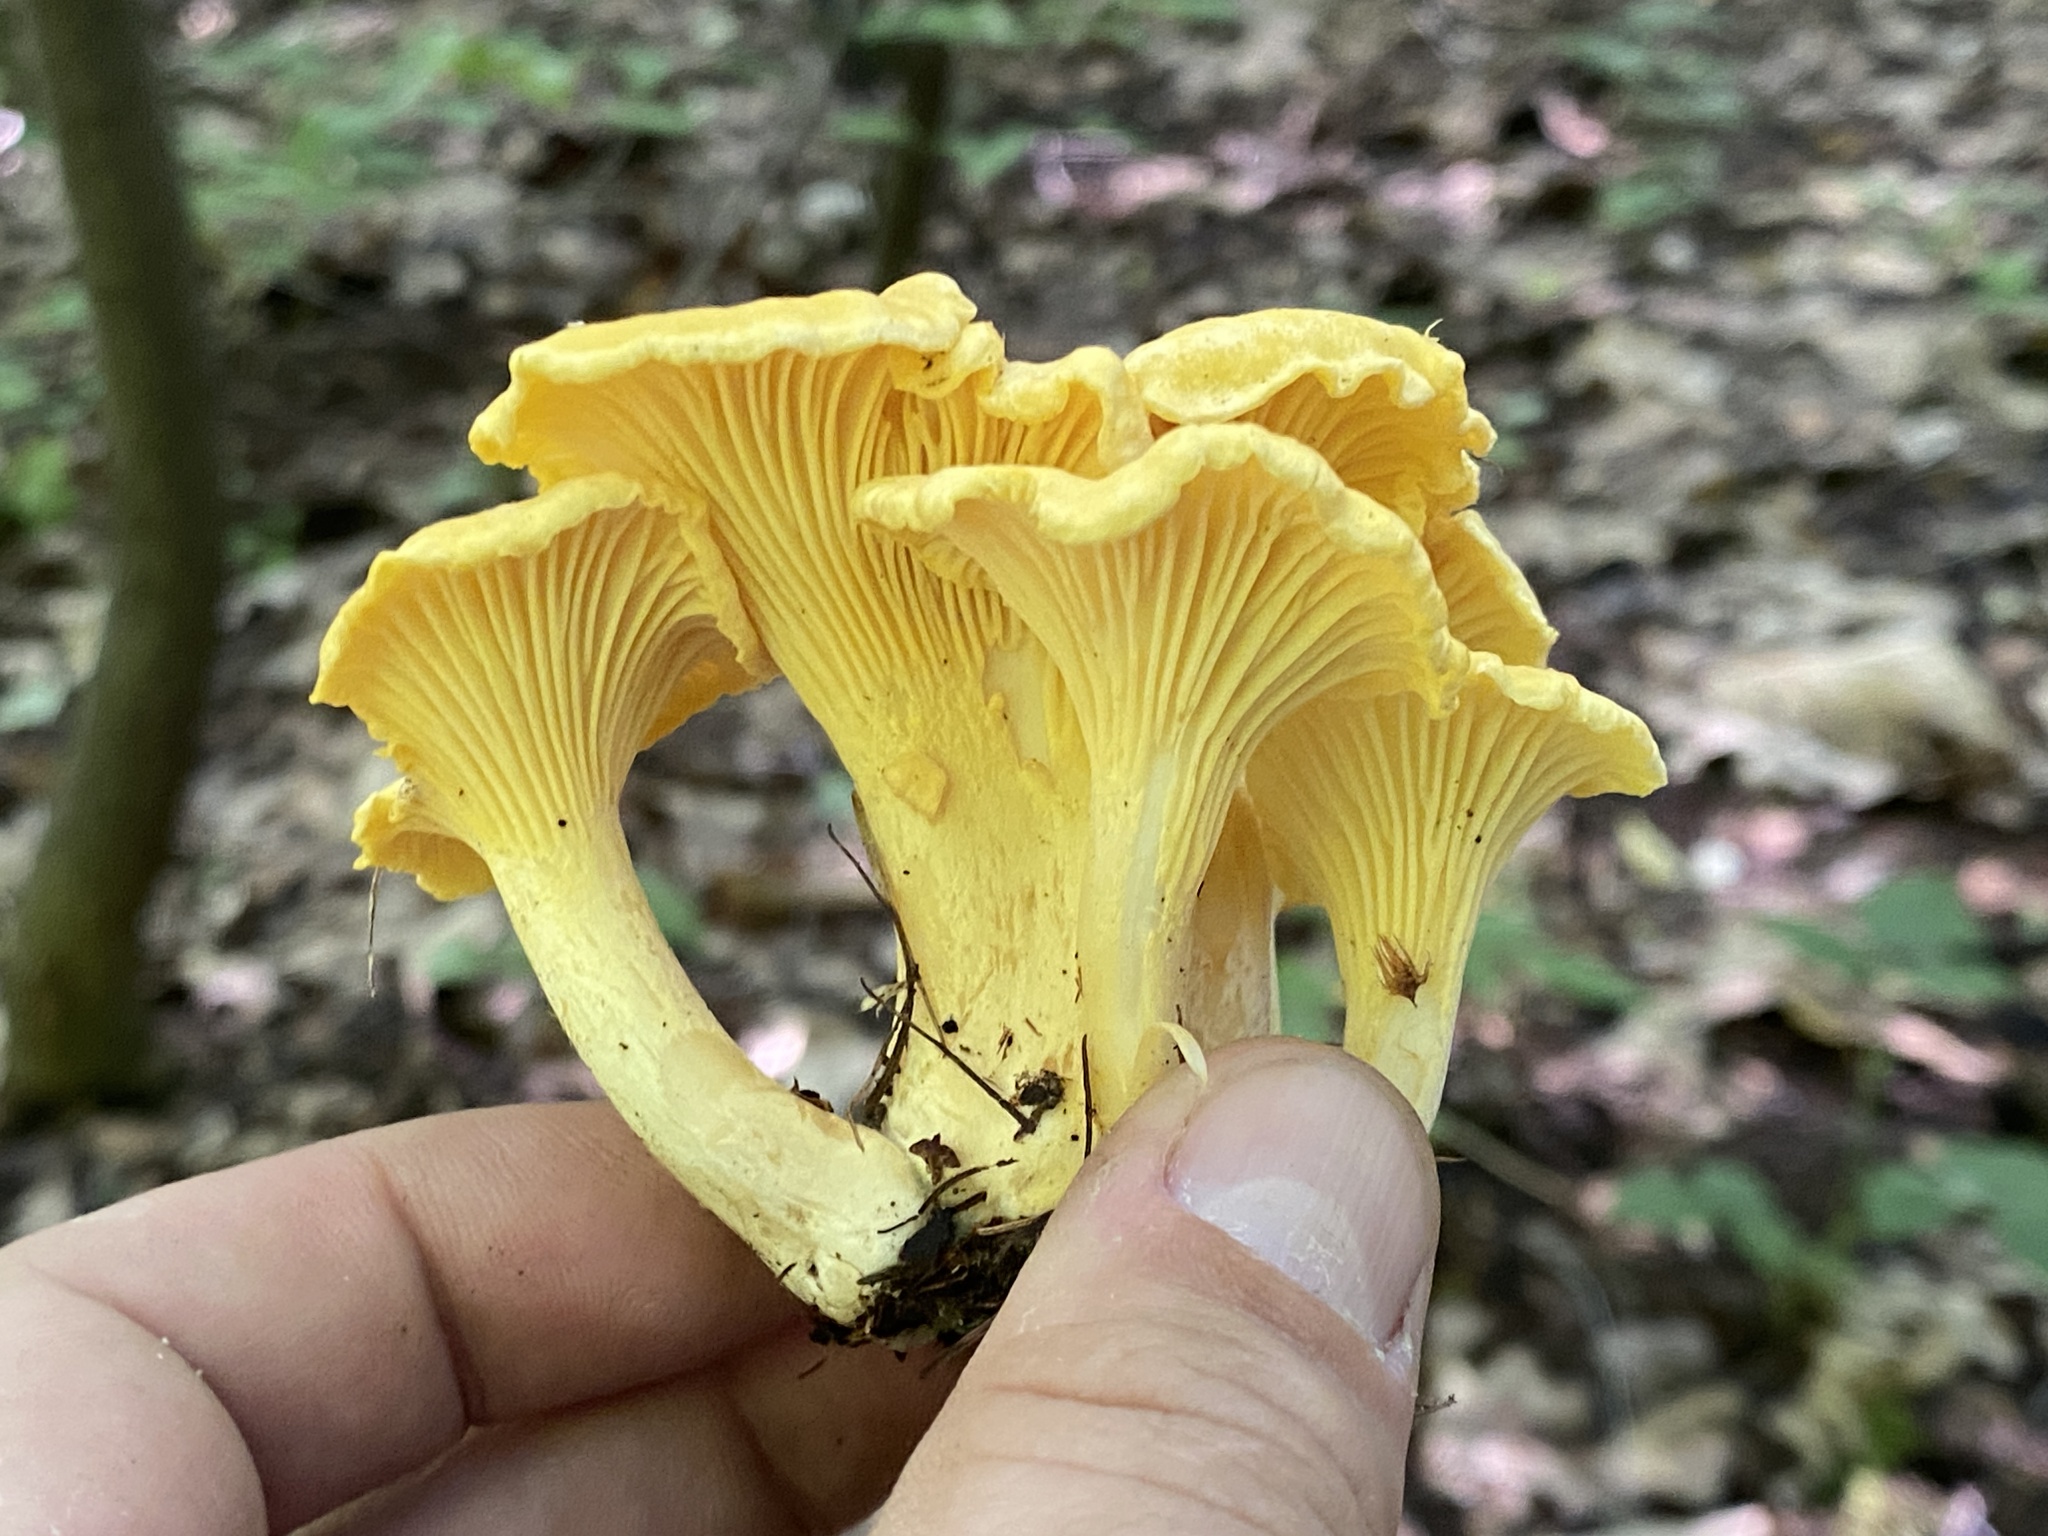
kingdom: Fungi
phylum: Basidiomycota
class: Agaricomycetes
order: Cantharellales
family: Hydnaceae
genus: Cantharellus
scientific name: Cantharellus cibarius
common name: Chanterelle
